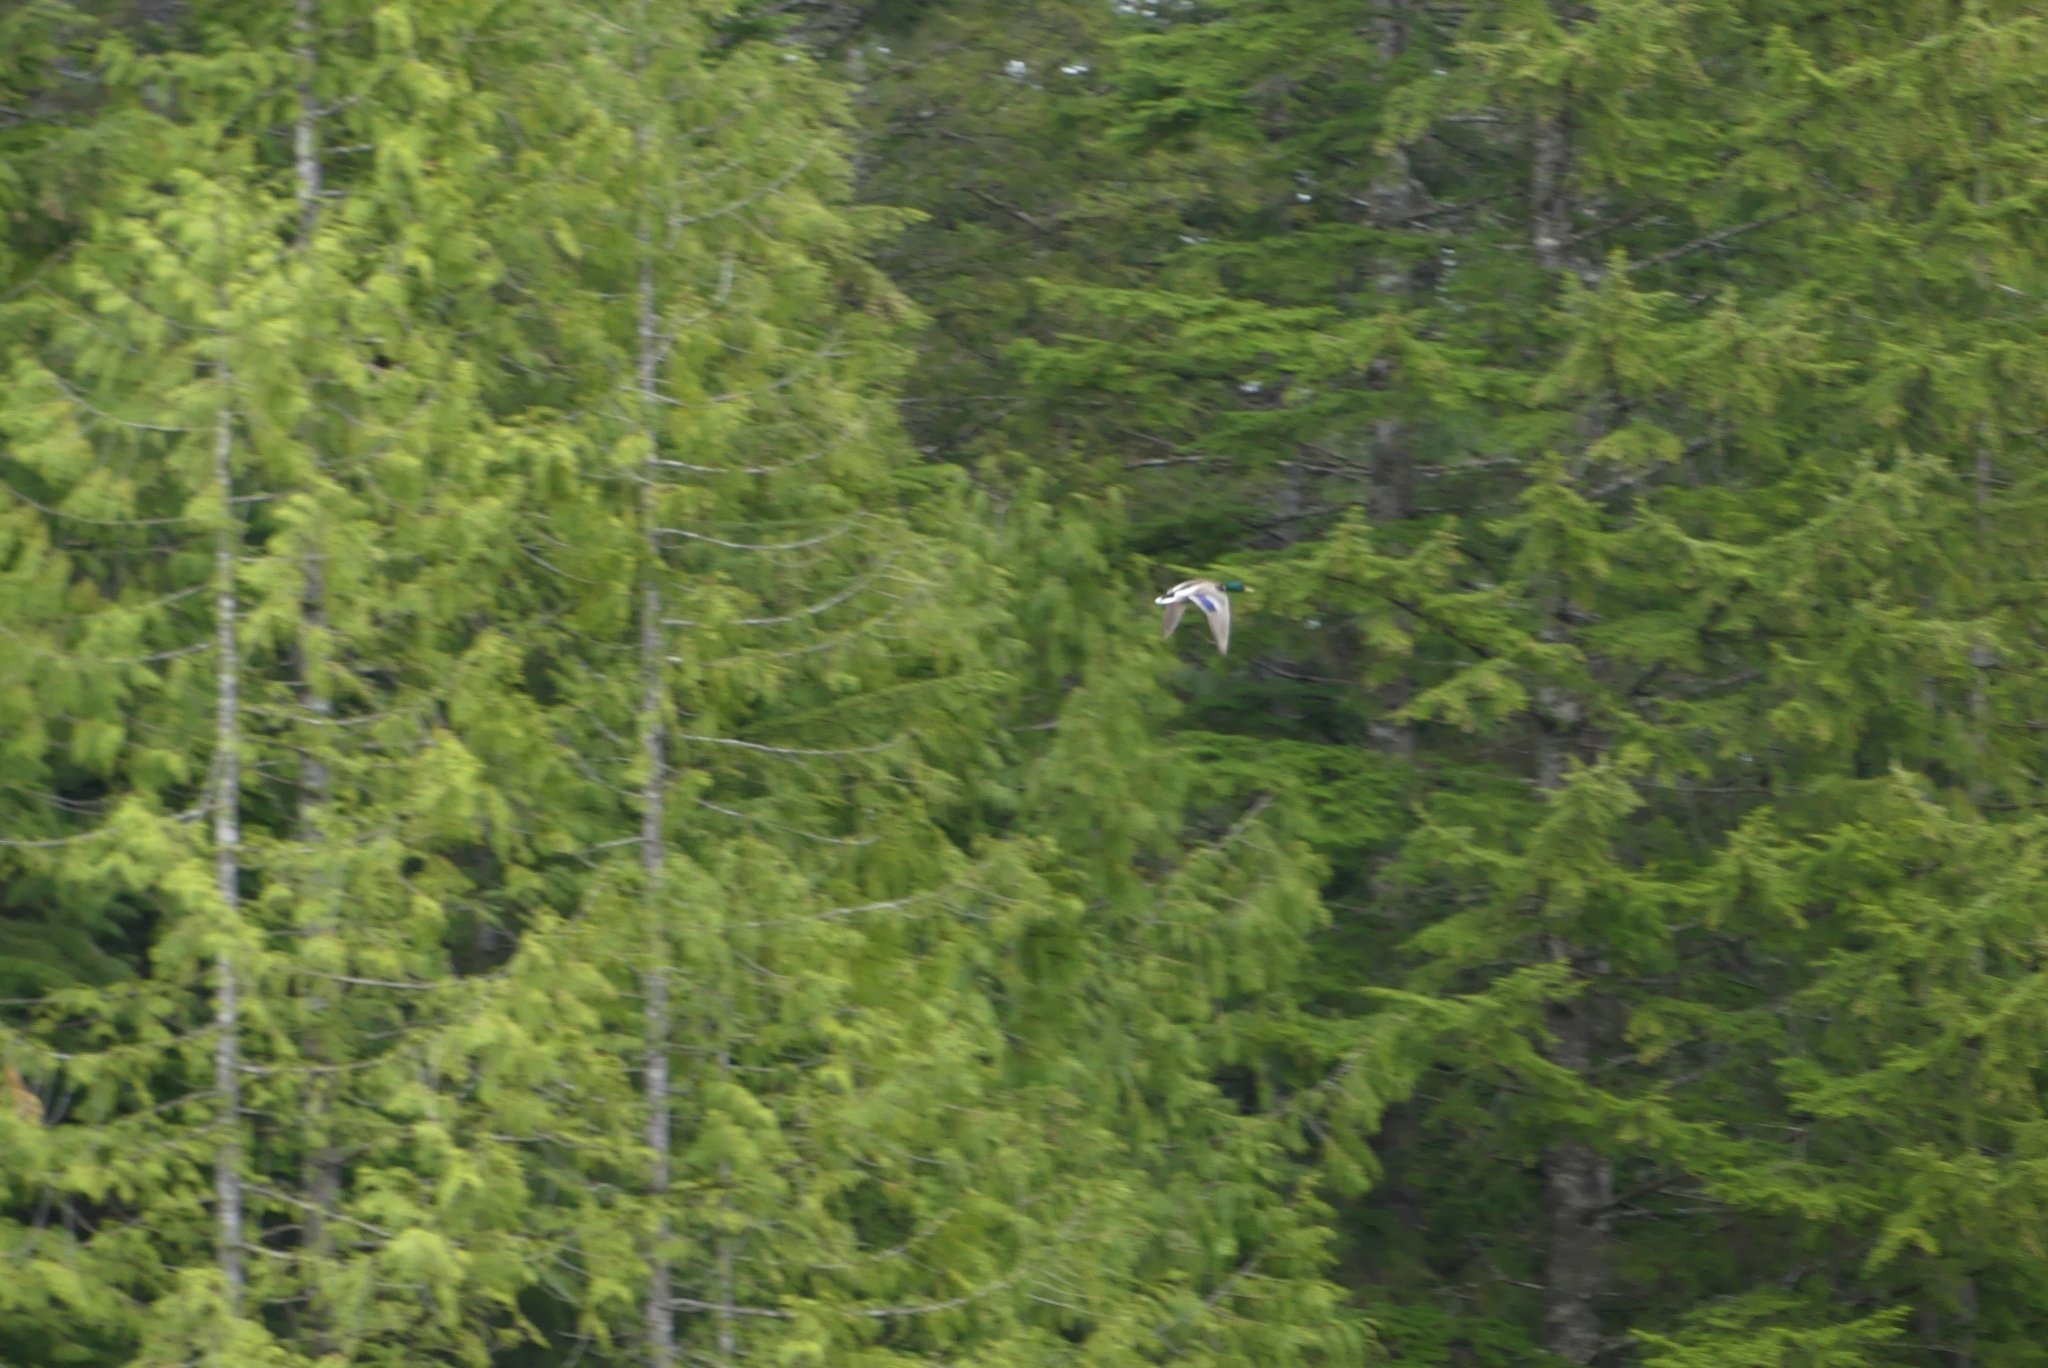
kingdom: Animalia
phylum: Chordata
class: Aves
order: Anseriformes
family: Anatidae
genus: Anas
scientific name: Anas platyrhynchos
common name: Mallard
